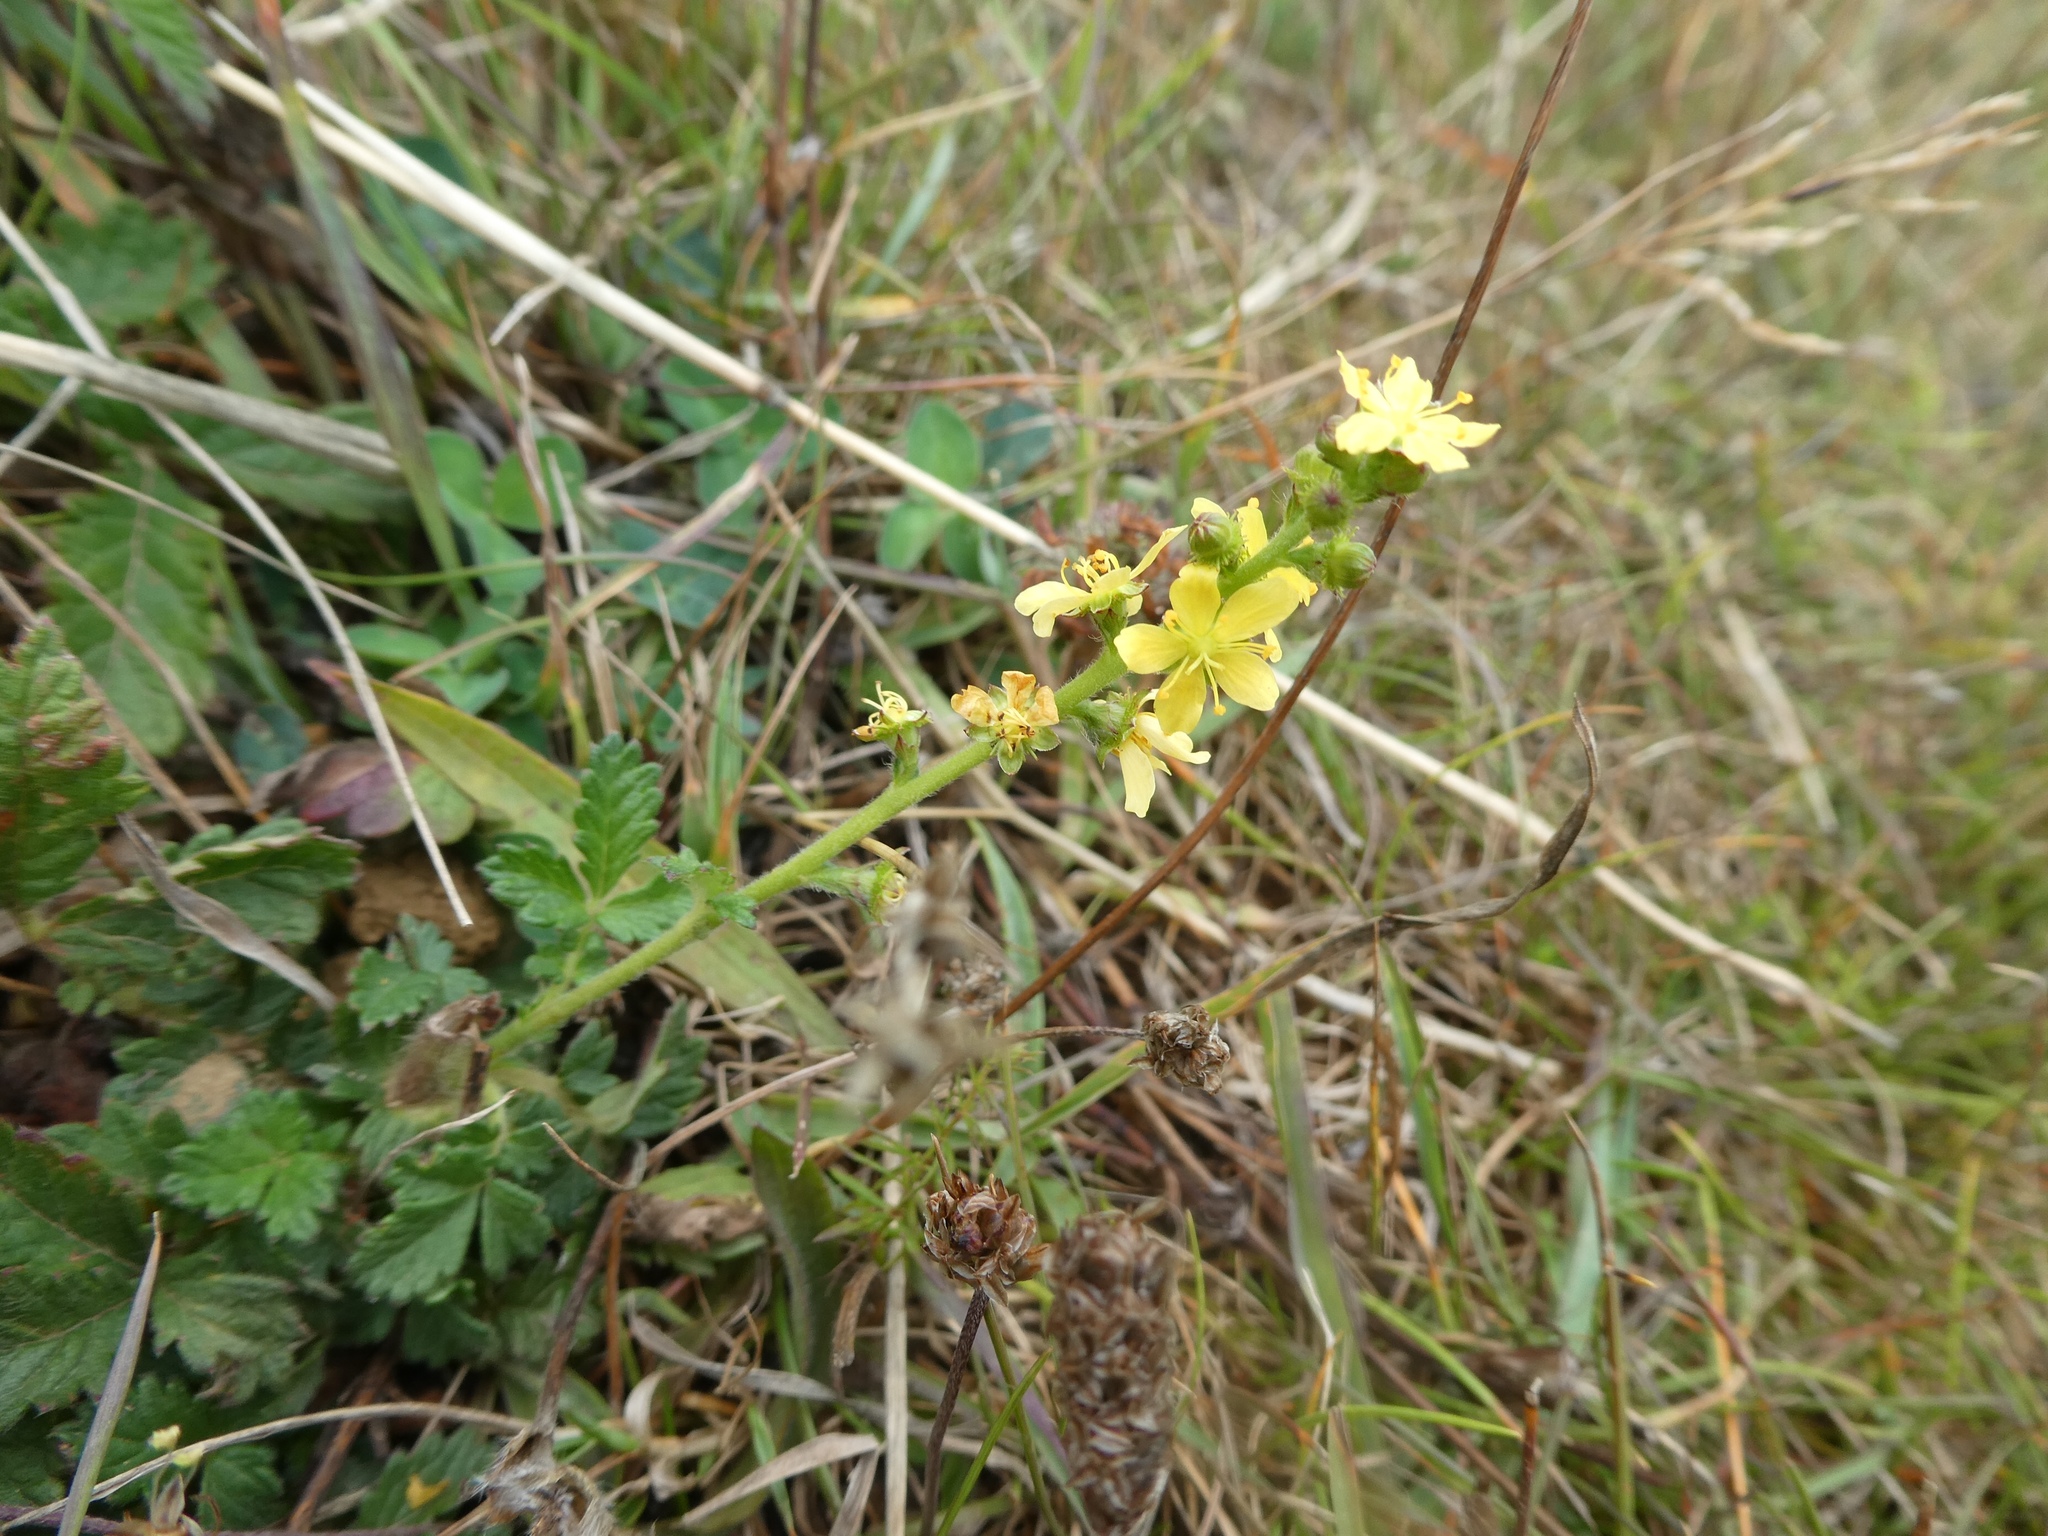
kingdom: Plantae
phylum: Tracheophyta
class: Magnoliopsida
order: Rosales
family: Rosaceae
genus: Agrimonia
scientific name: Agrimonia eupatoria
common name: Agrimony
